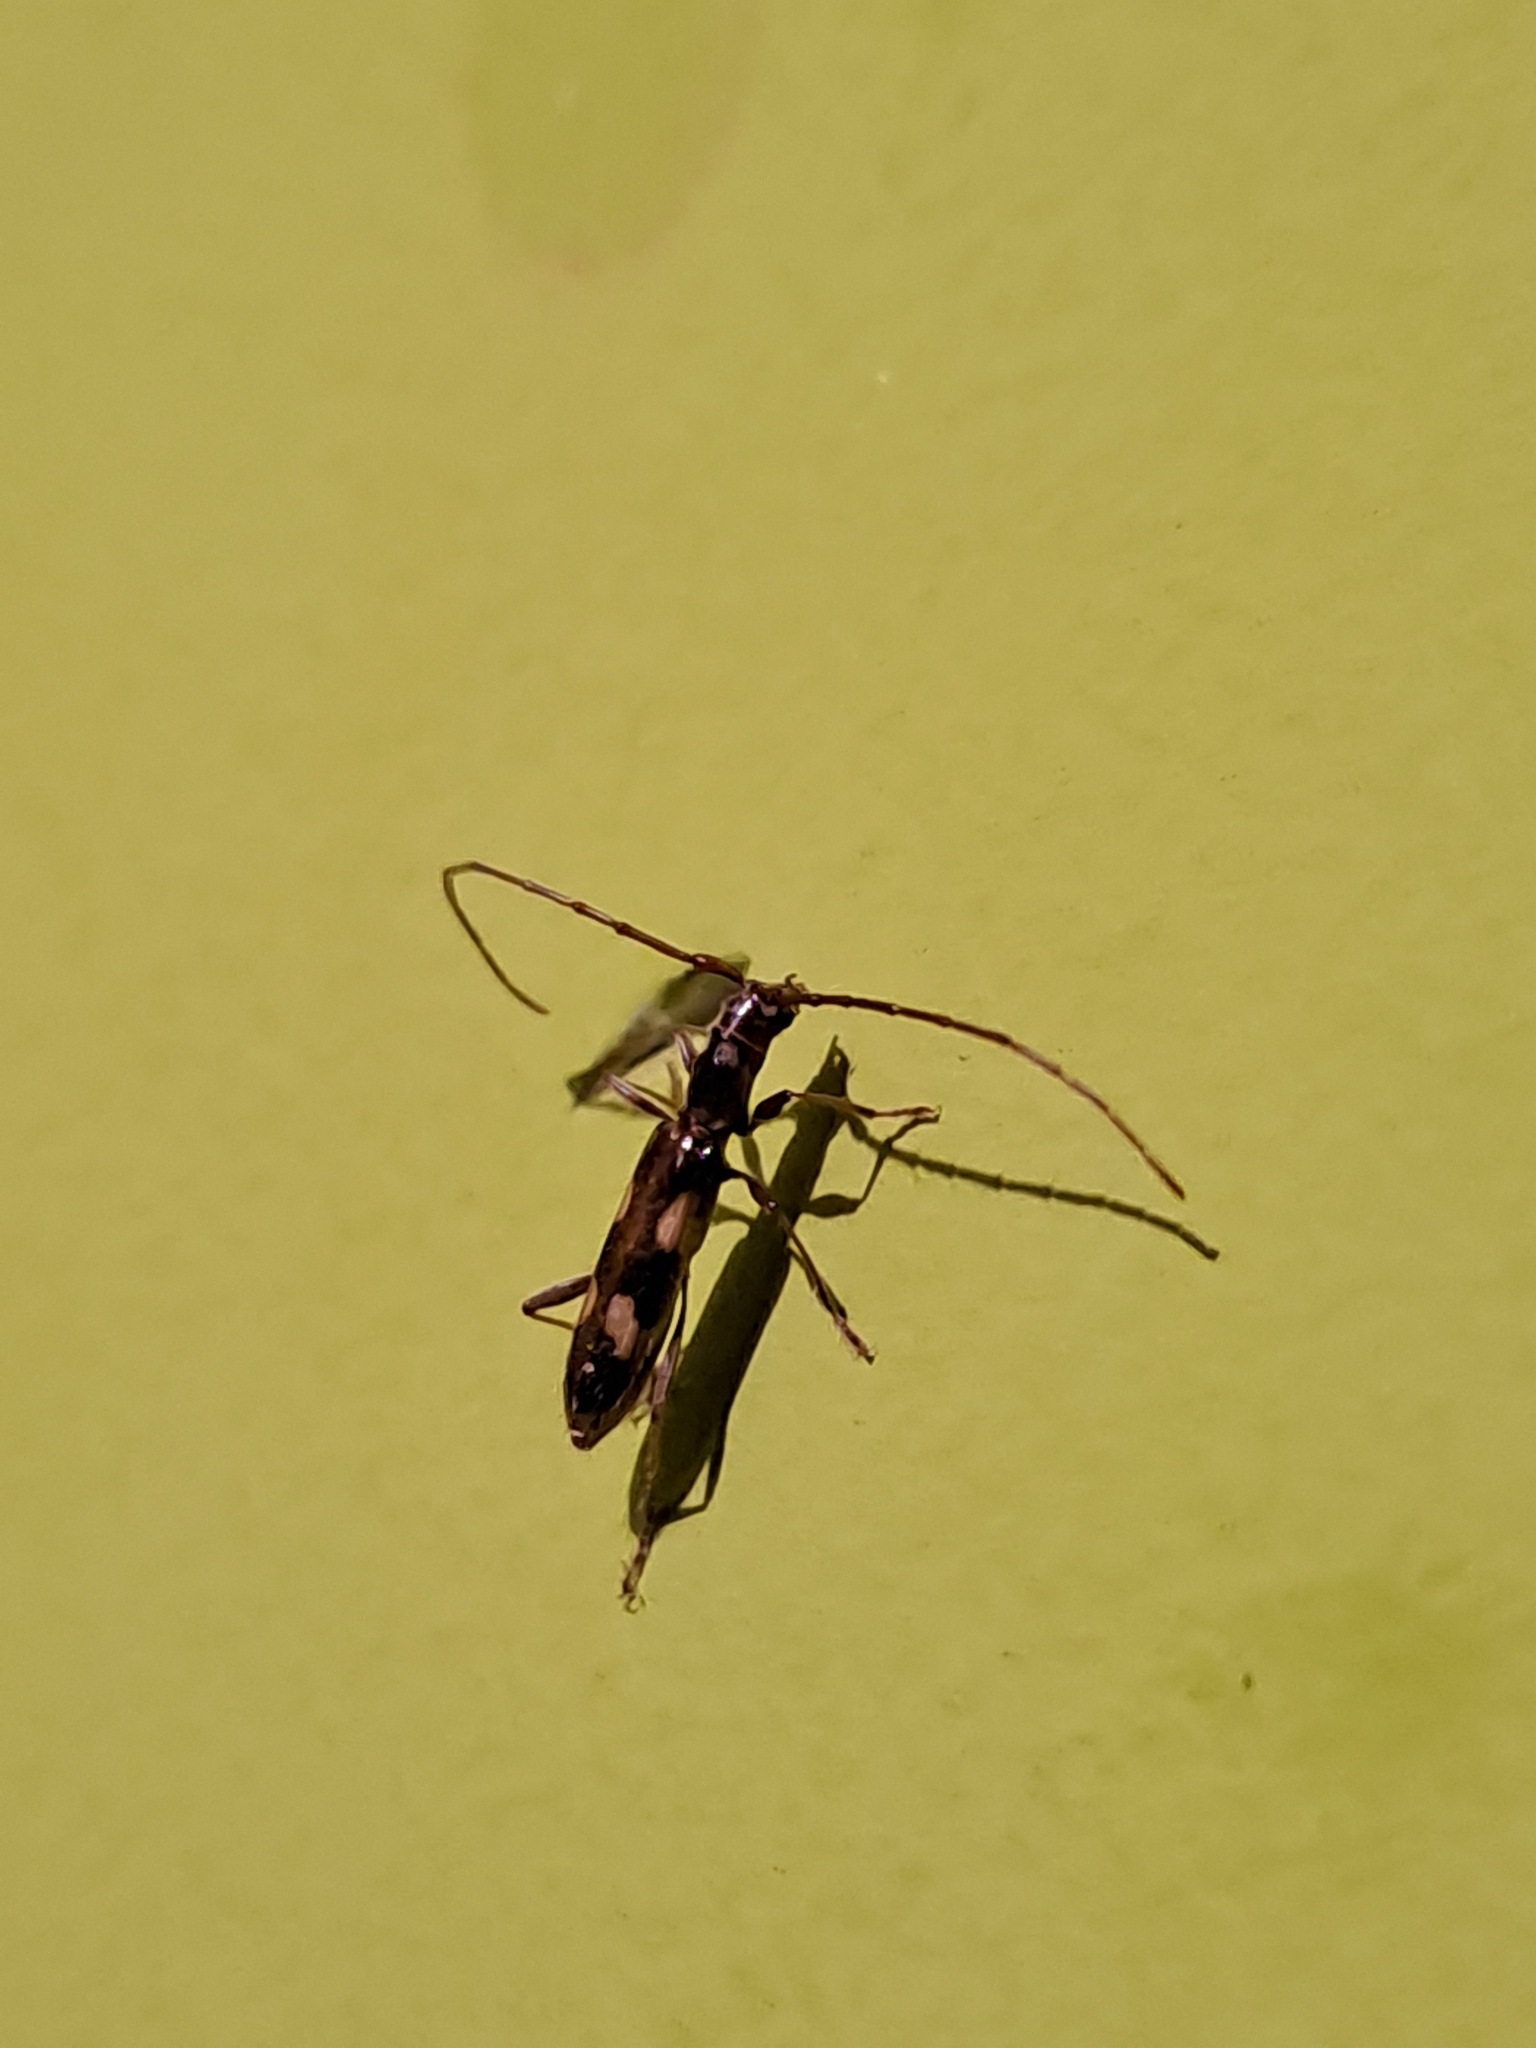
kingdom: Animalia
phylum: Arthropoda
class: Insecta
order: Coleoptera
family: Cerambycidae
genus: Asynapteron
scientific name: Asynapteron inca
